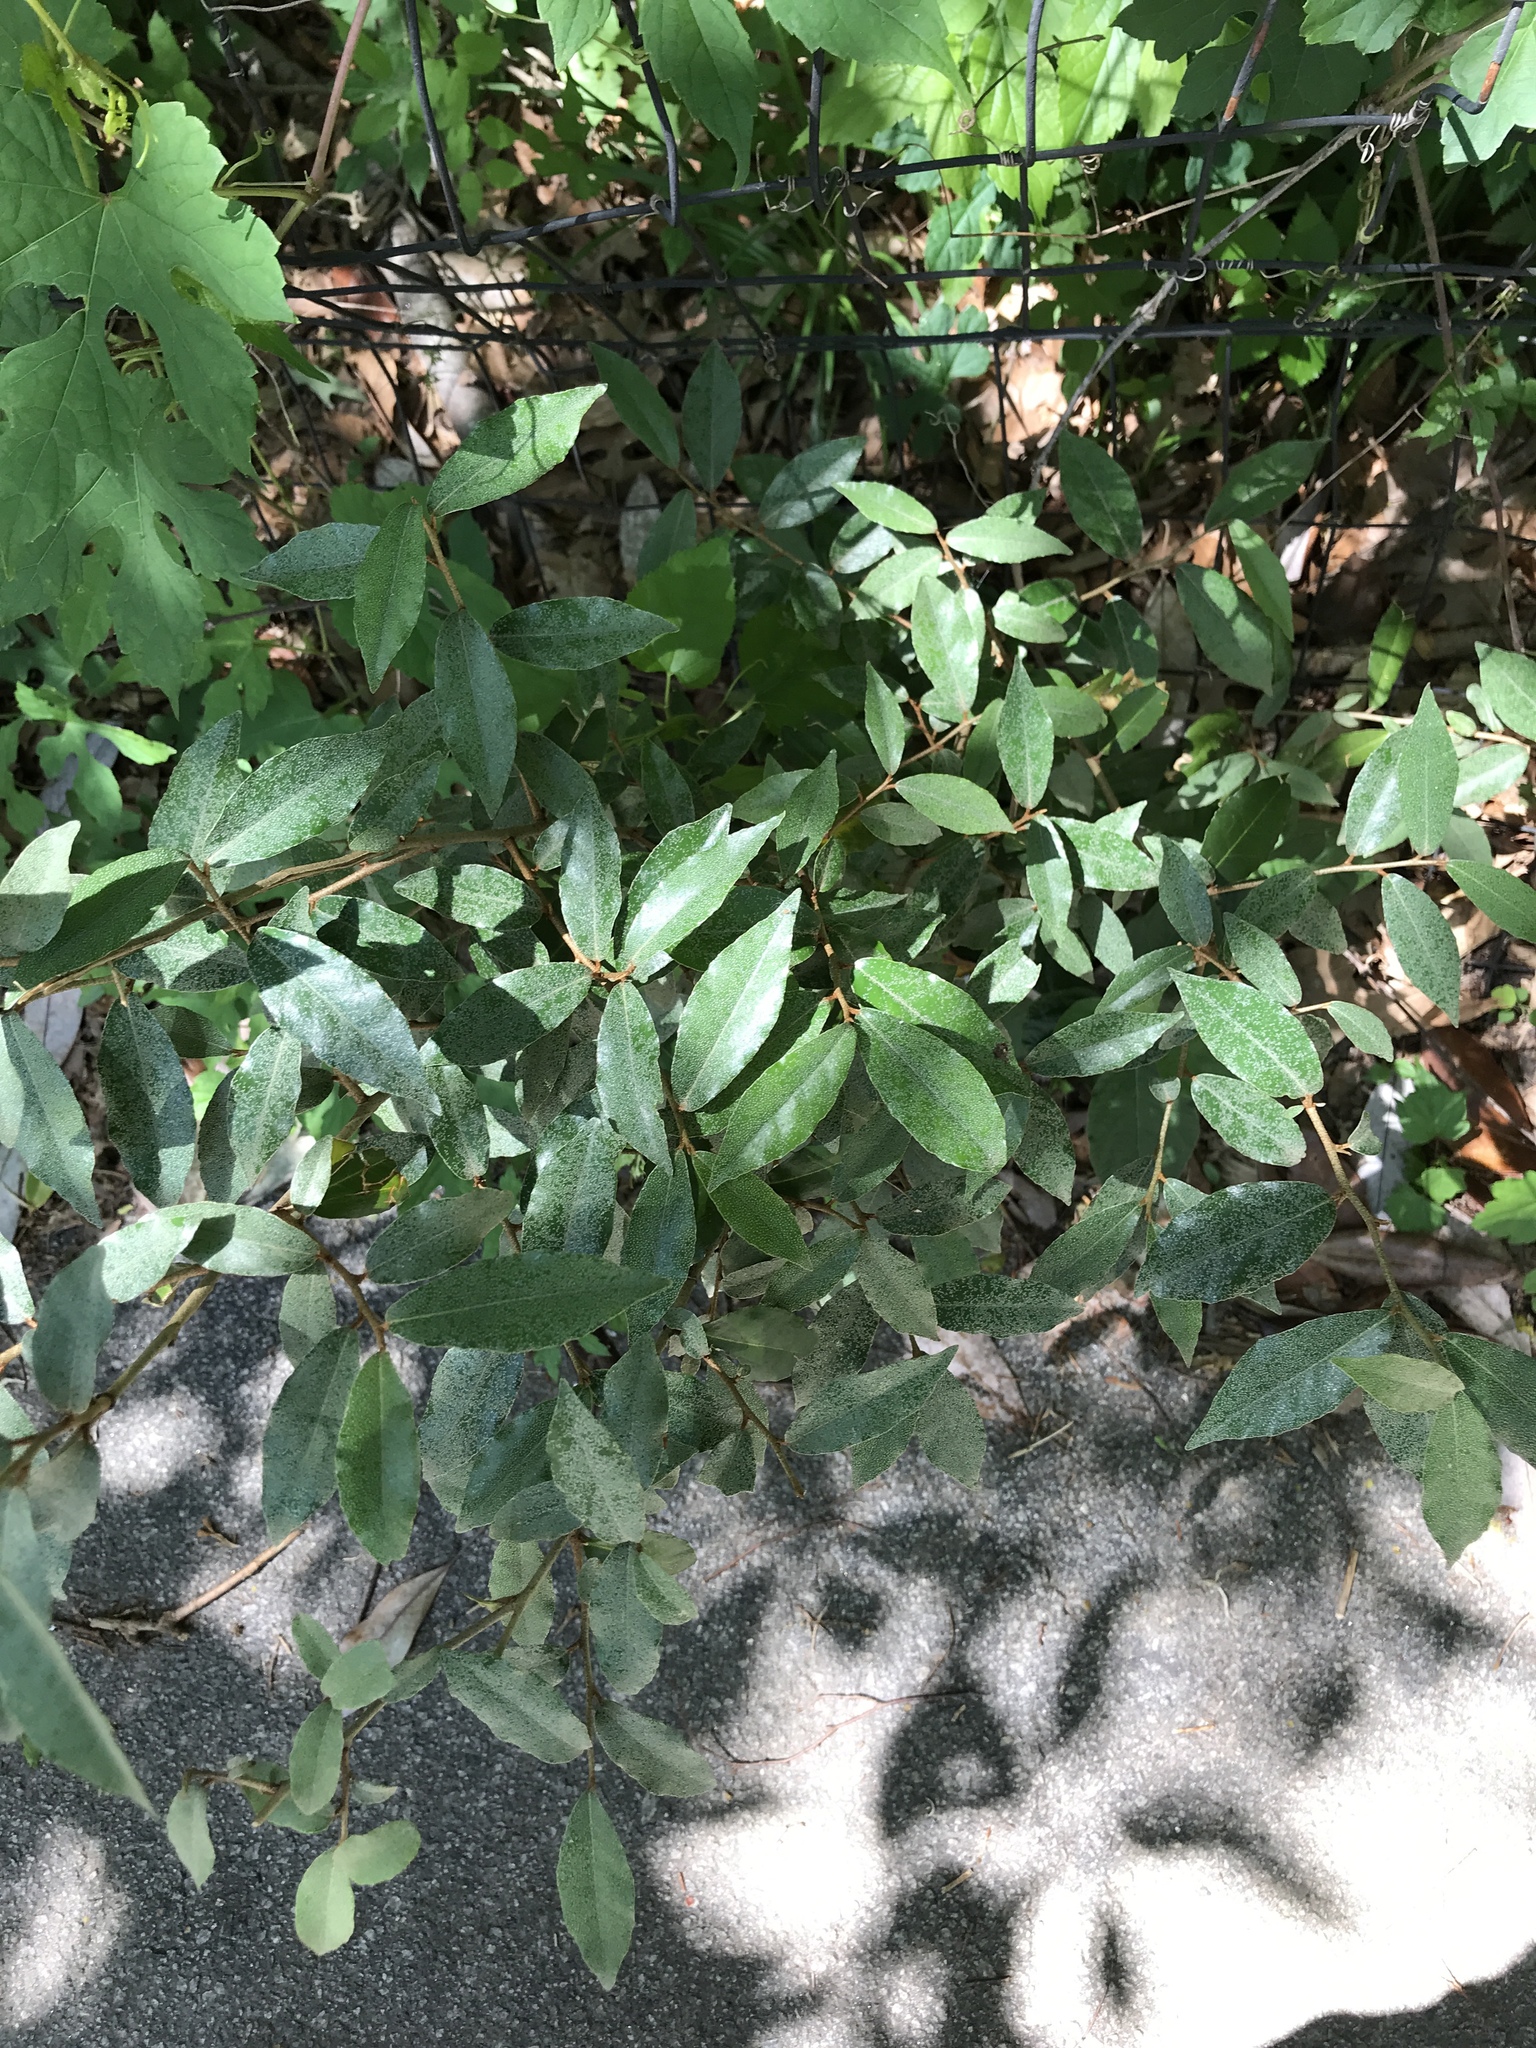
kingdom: Plantae
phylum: Tracheophyta
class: Magnoliopsida
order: Rosales
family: Elaeagnaceae
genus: Elaeagnus
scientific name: Elaeagnus pungens
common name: Spiny oleaster
